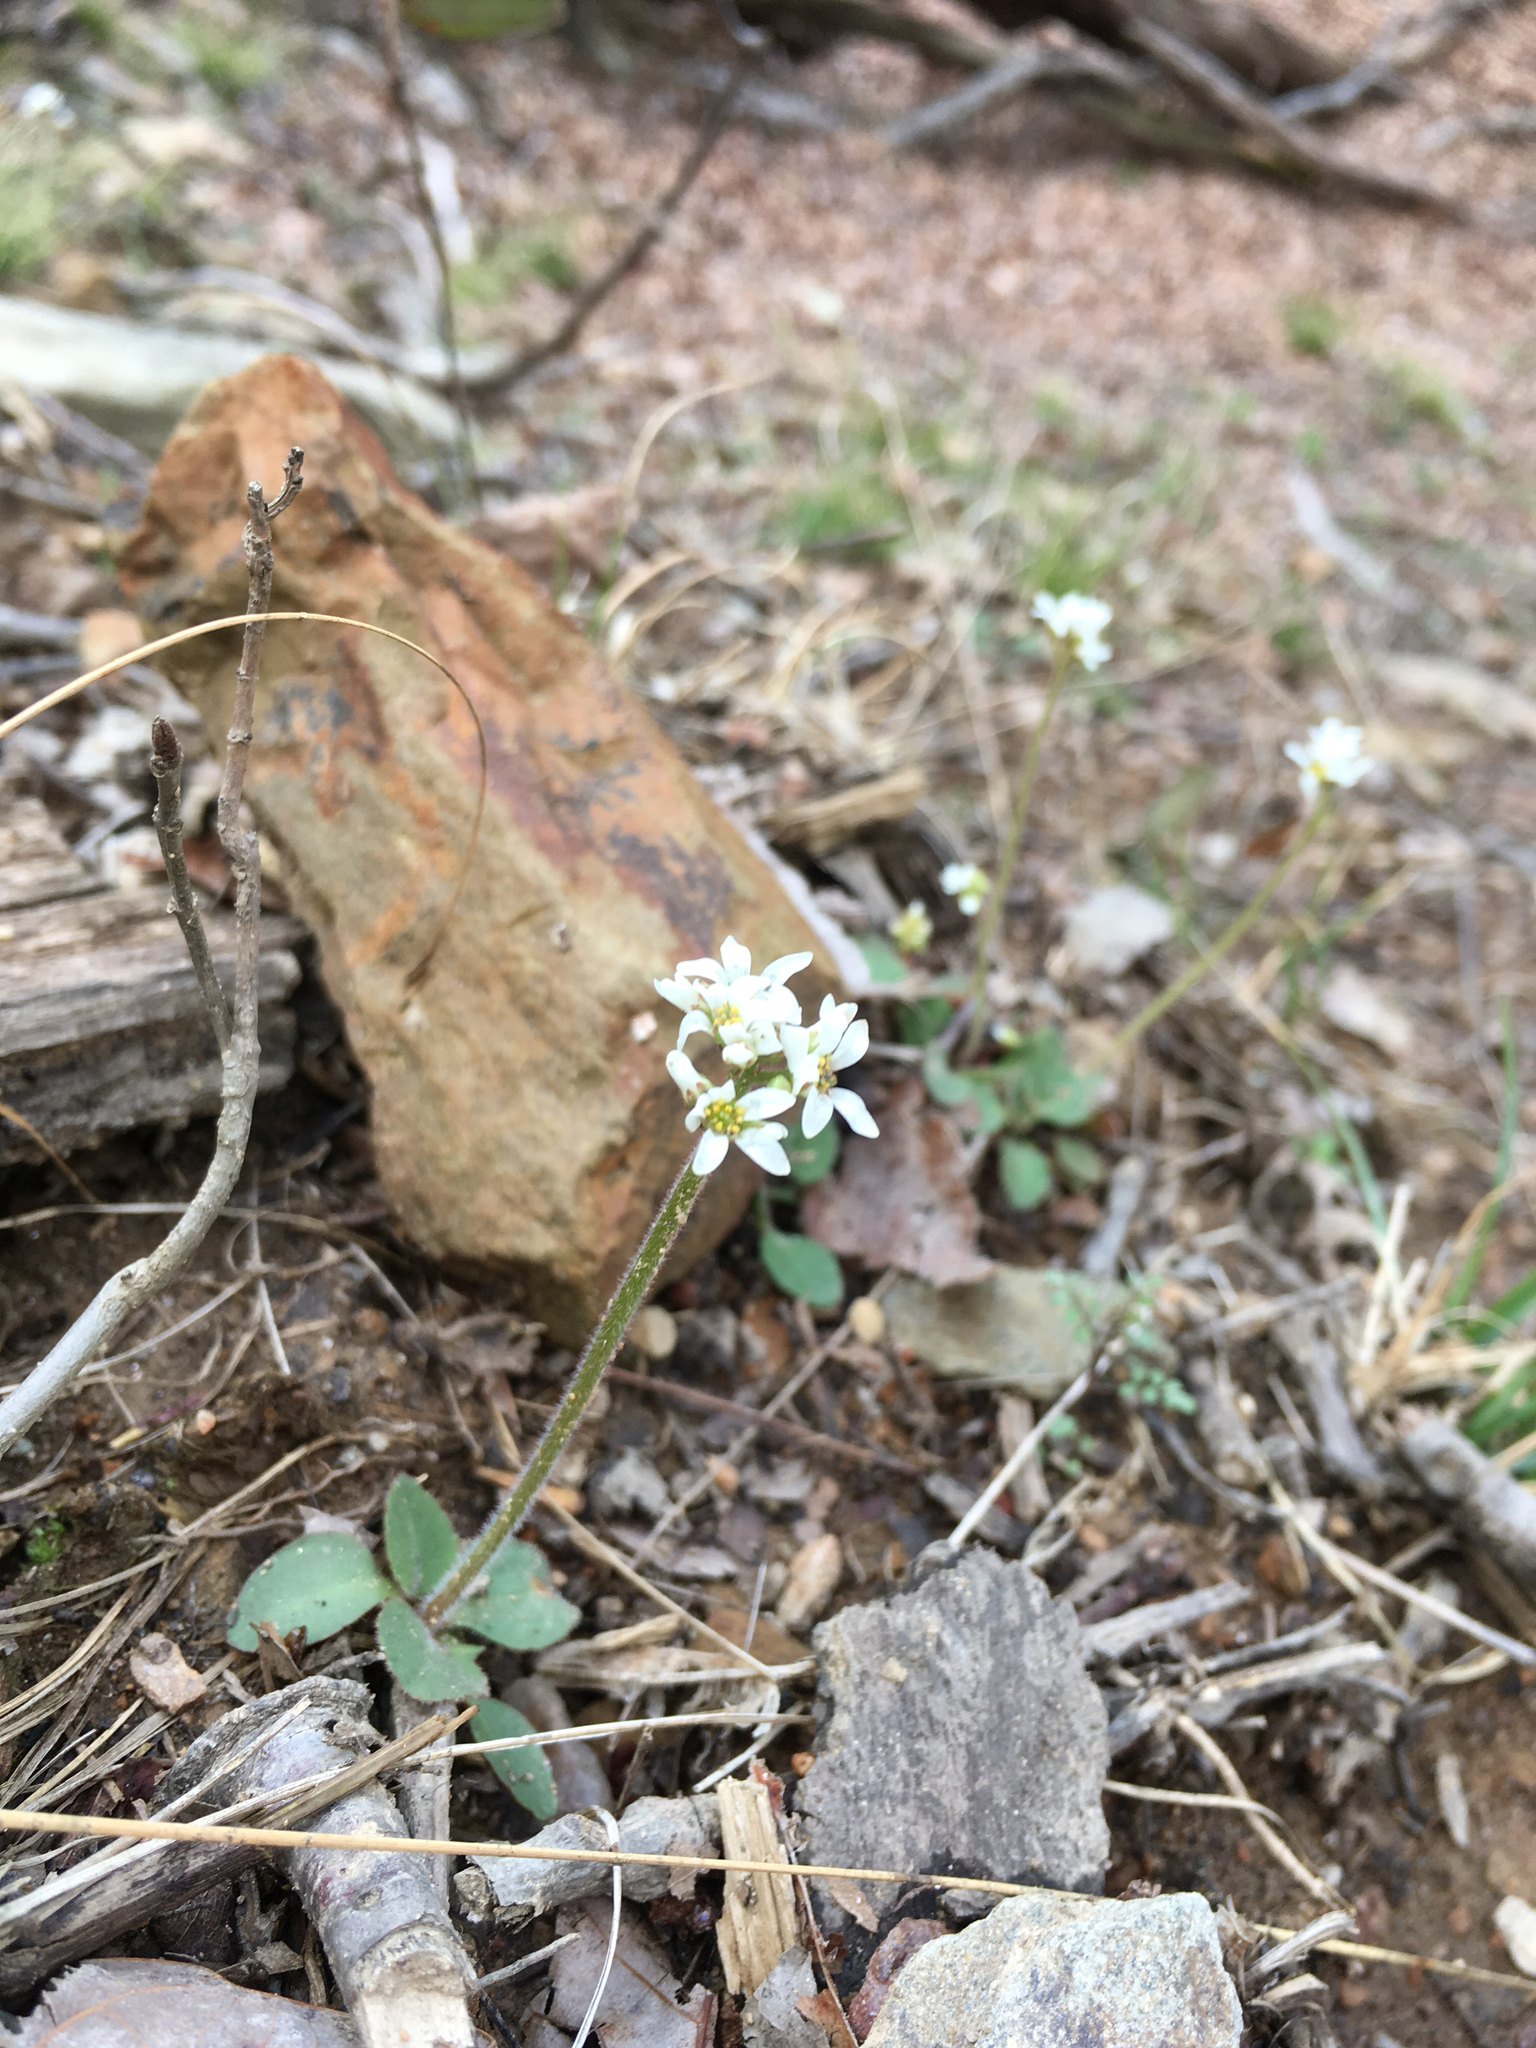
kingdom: Plantae
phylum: Tracheophyta
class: Magnoliopsida
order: Saxifragales
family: Saxifragaceae
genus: Micranthes
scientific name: Micranthes virginiensis
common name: Early saxifrage
